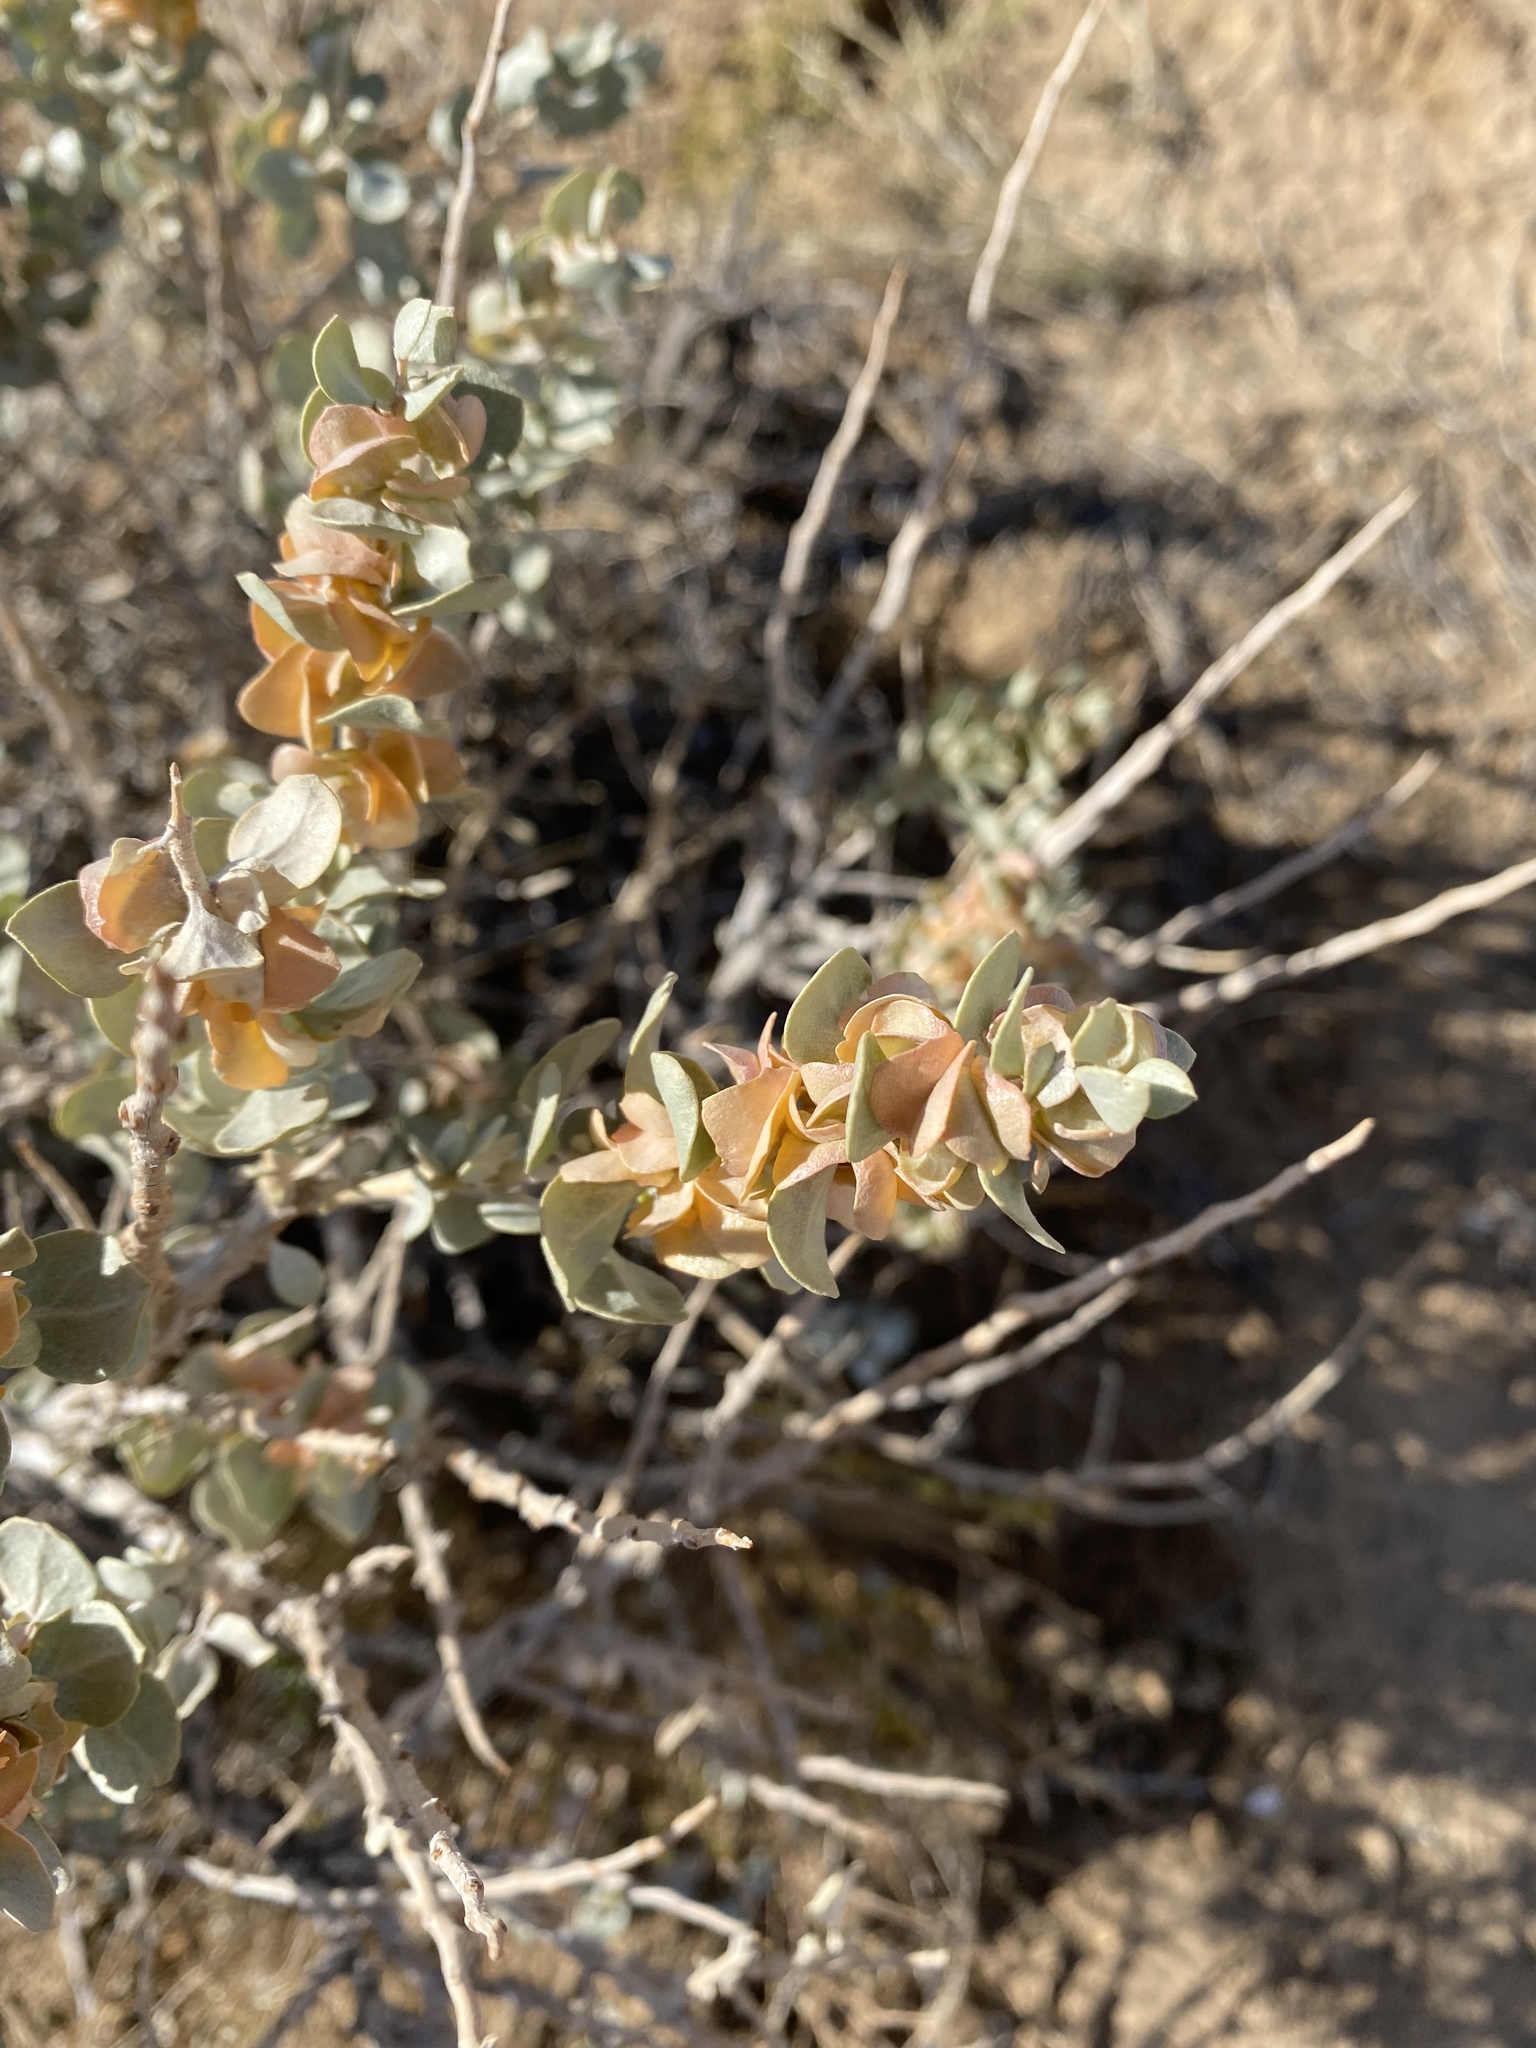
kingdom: Plantae
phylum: Tracheophyta
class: Magnoliopsida
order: Caryophyllales
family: Amaranthaceae
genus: Atriplex
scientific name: Atriplex confertifolia
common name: Shadscale
